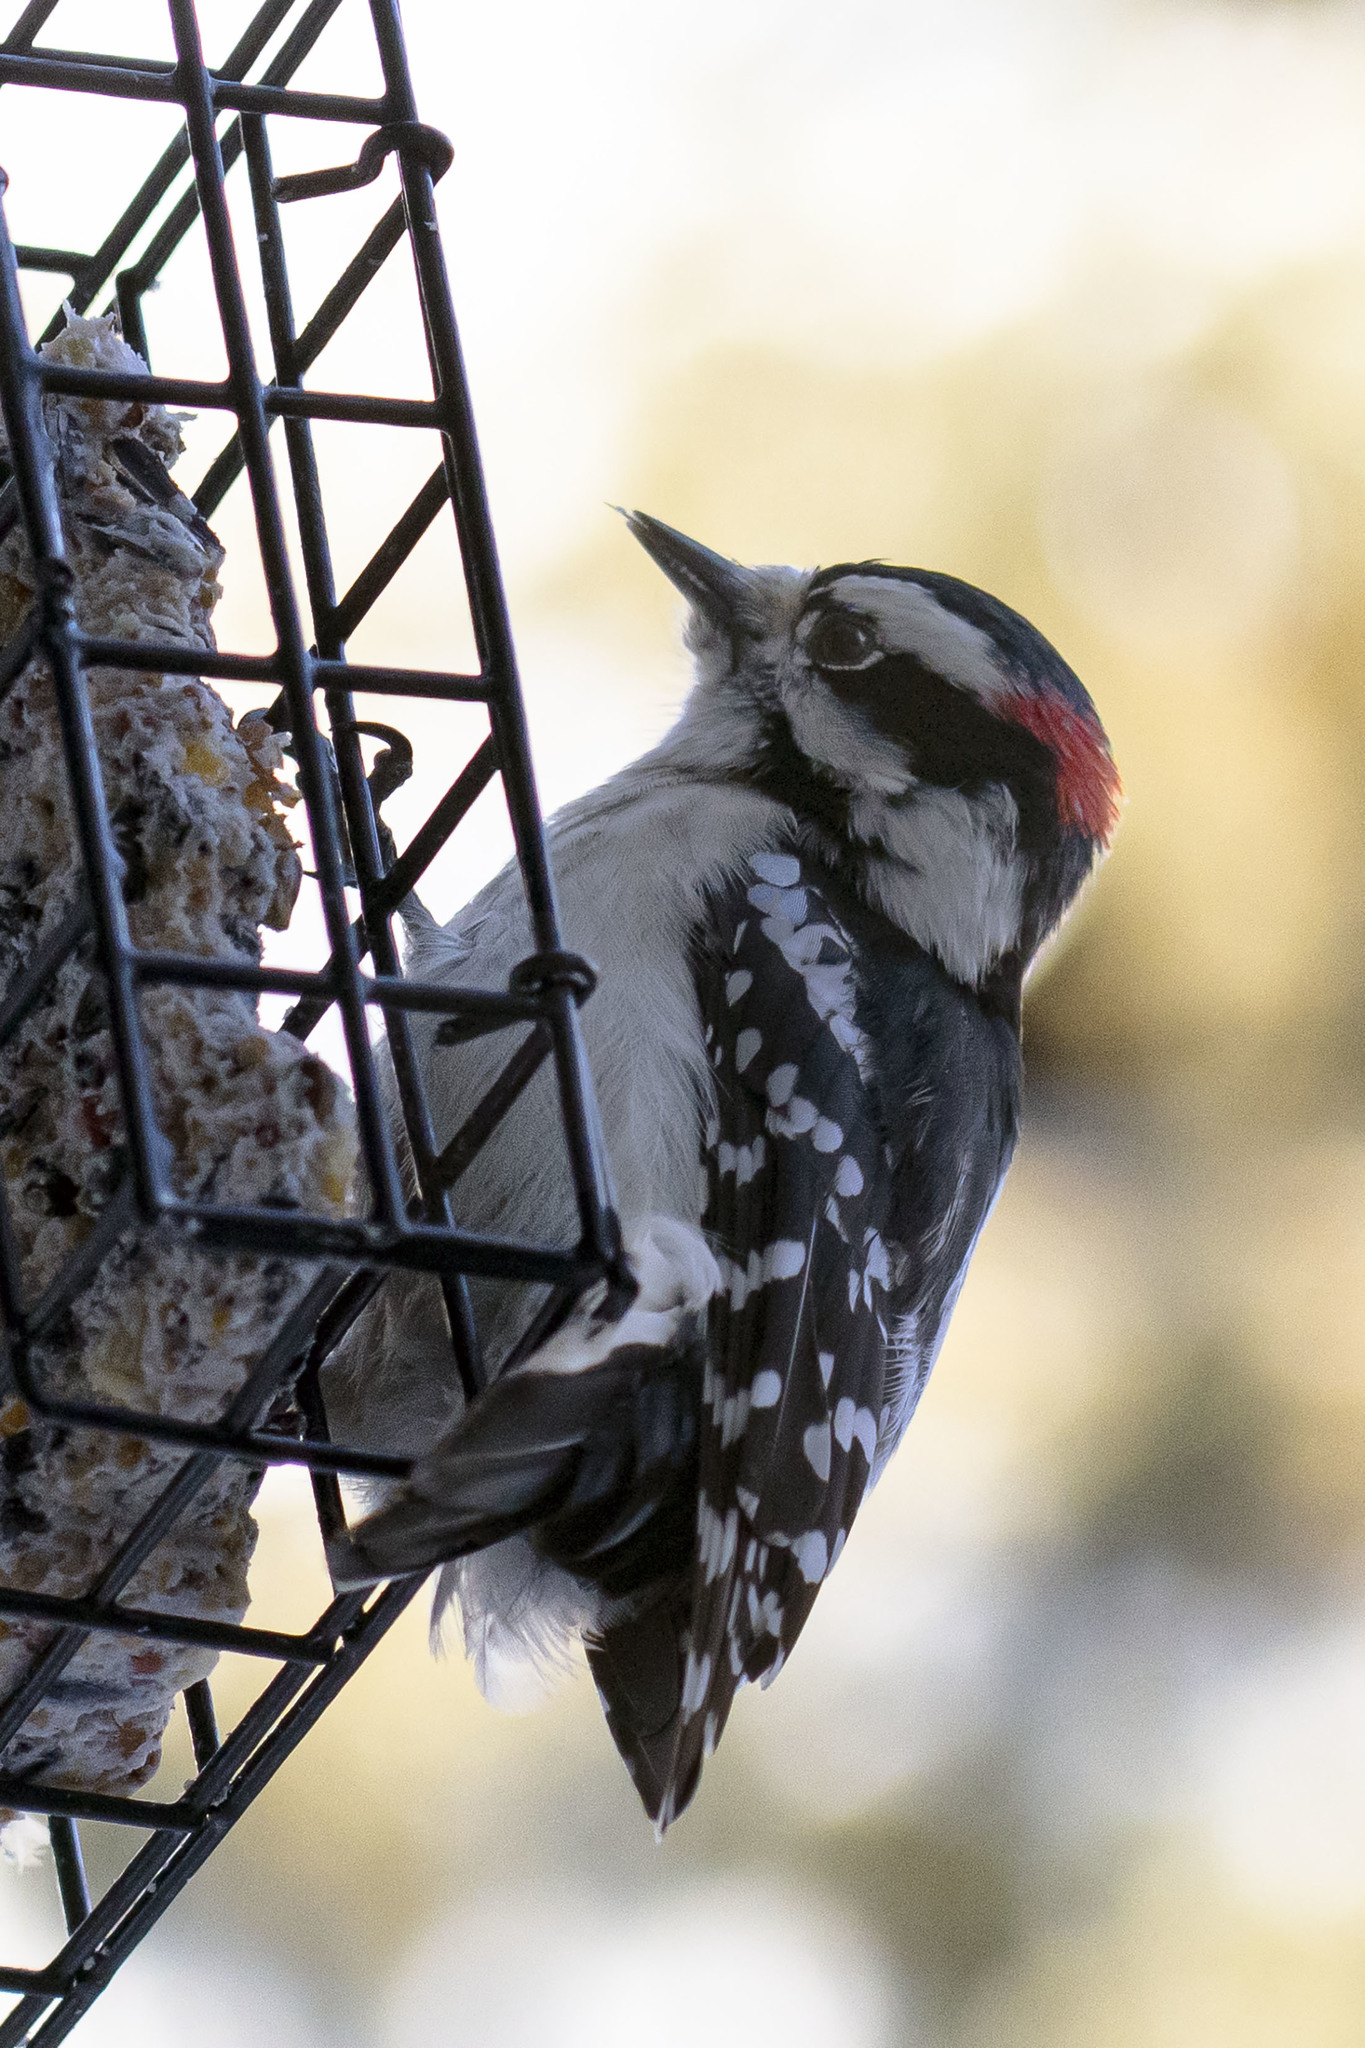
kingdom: Animalia
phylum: Chordata
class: Aves
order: Piciformes
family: Picidae
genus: Dryobates
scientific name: Dryobates pubescens
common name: Downy woodpecker
